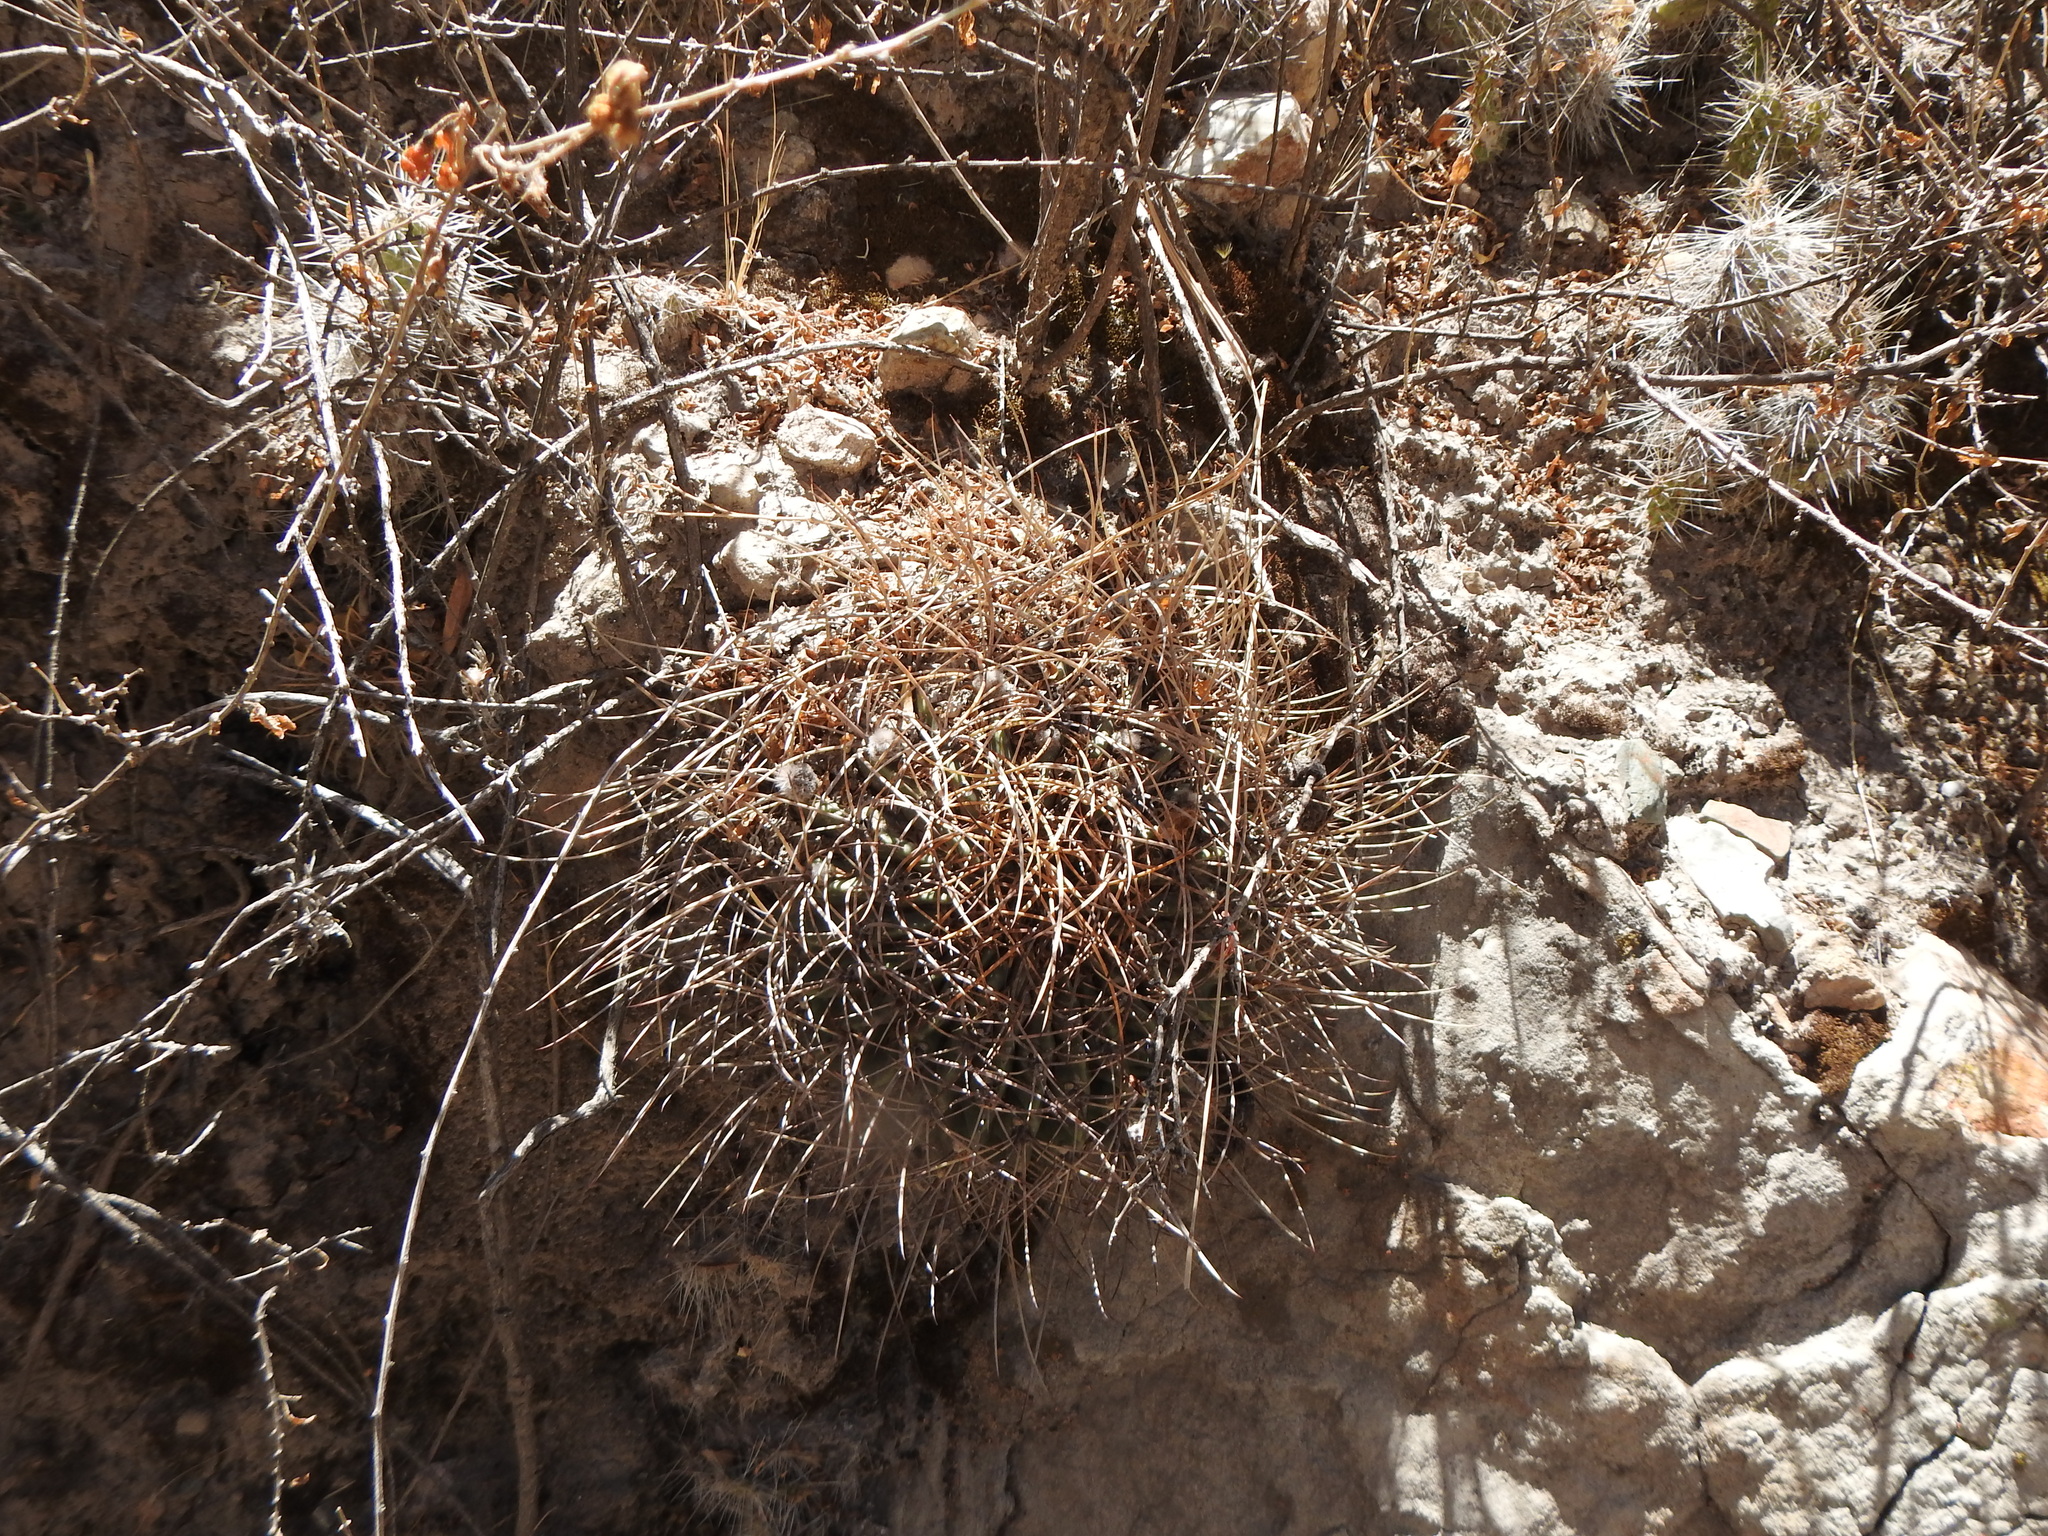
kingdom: Plantae
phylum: Tracheophyta
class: Magnoliopsida
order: Caryophyllales
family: Cactaceae
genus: Lobivia
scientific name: Lobivia ferox
